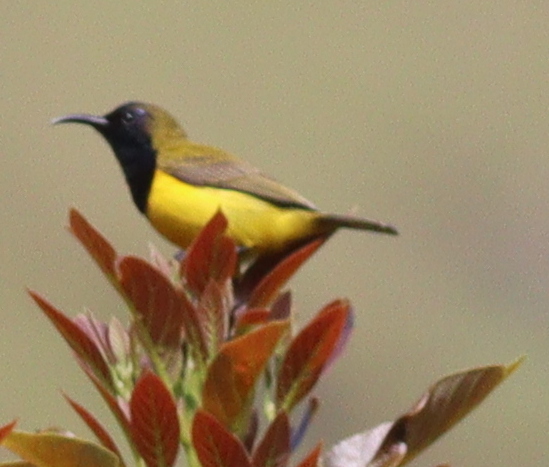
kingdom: Animalia
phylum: Chordata
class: Aves
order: Passeriformes
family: Nectariniidae
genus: Cinnyris
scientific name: Cinnyris
